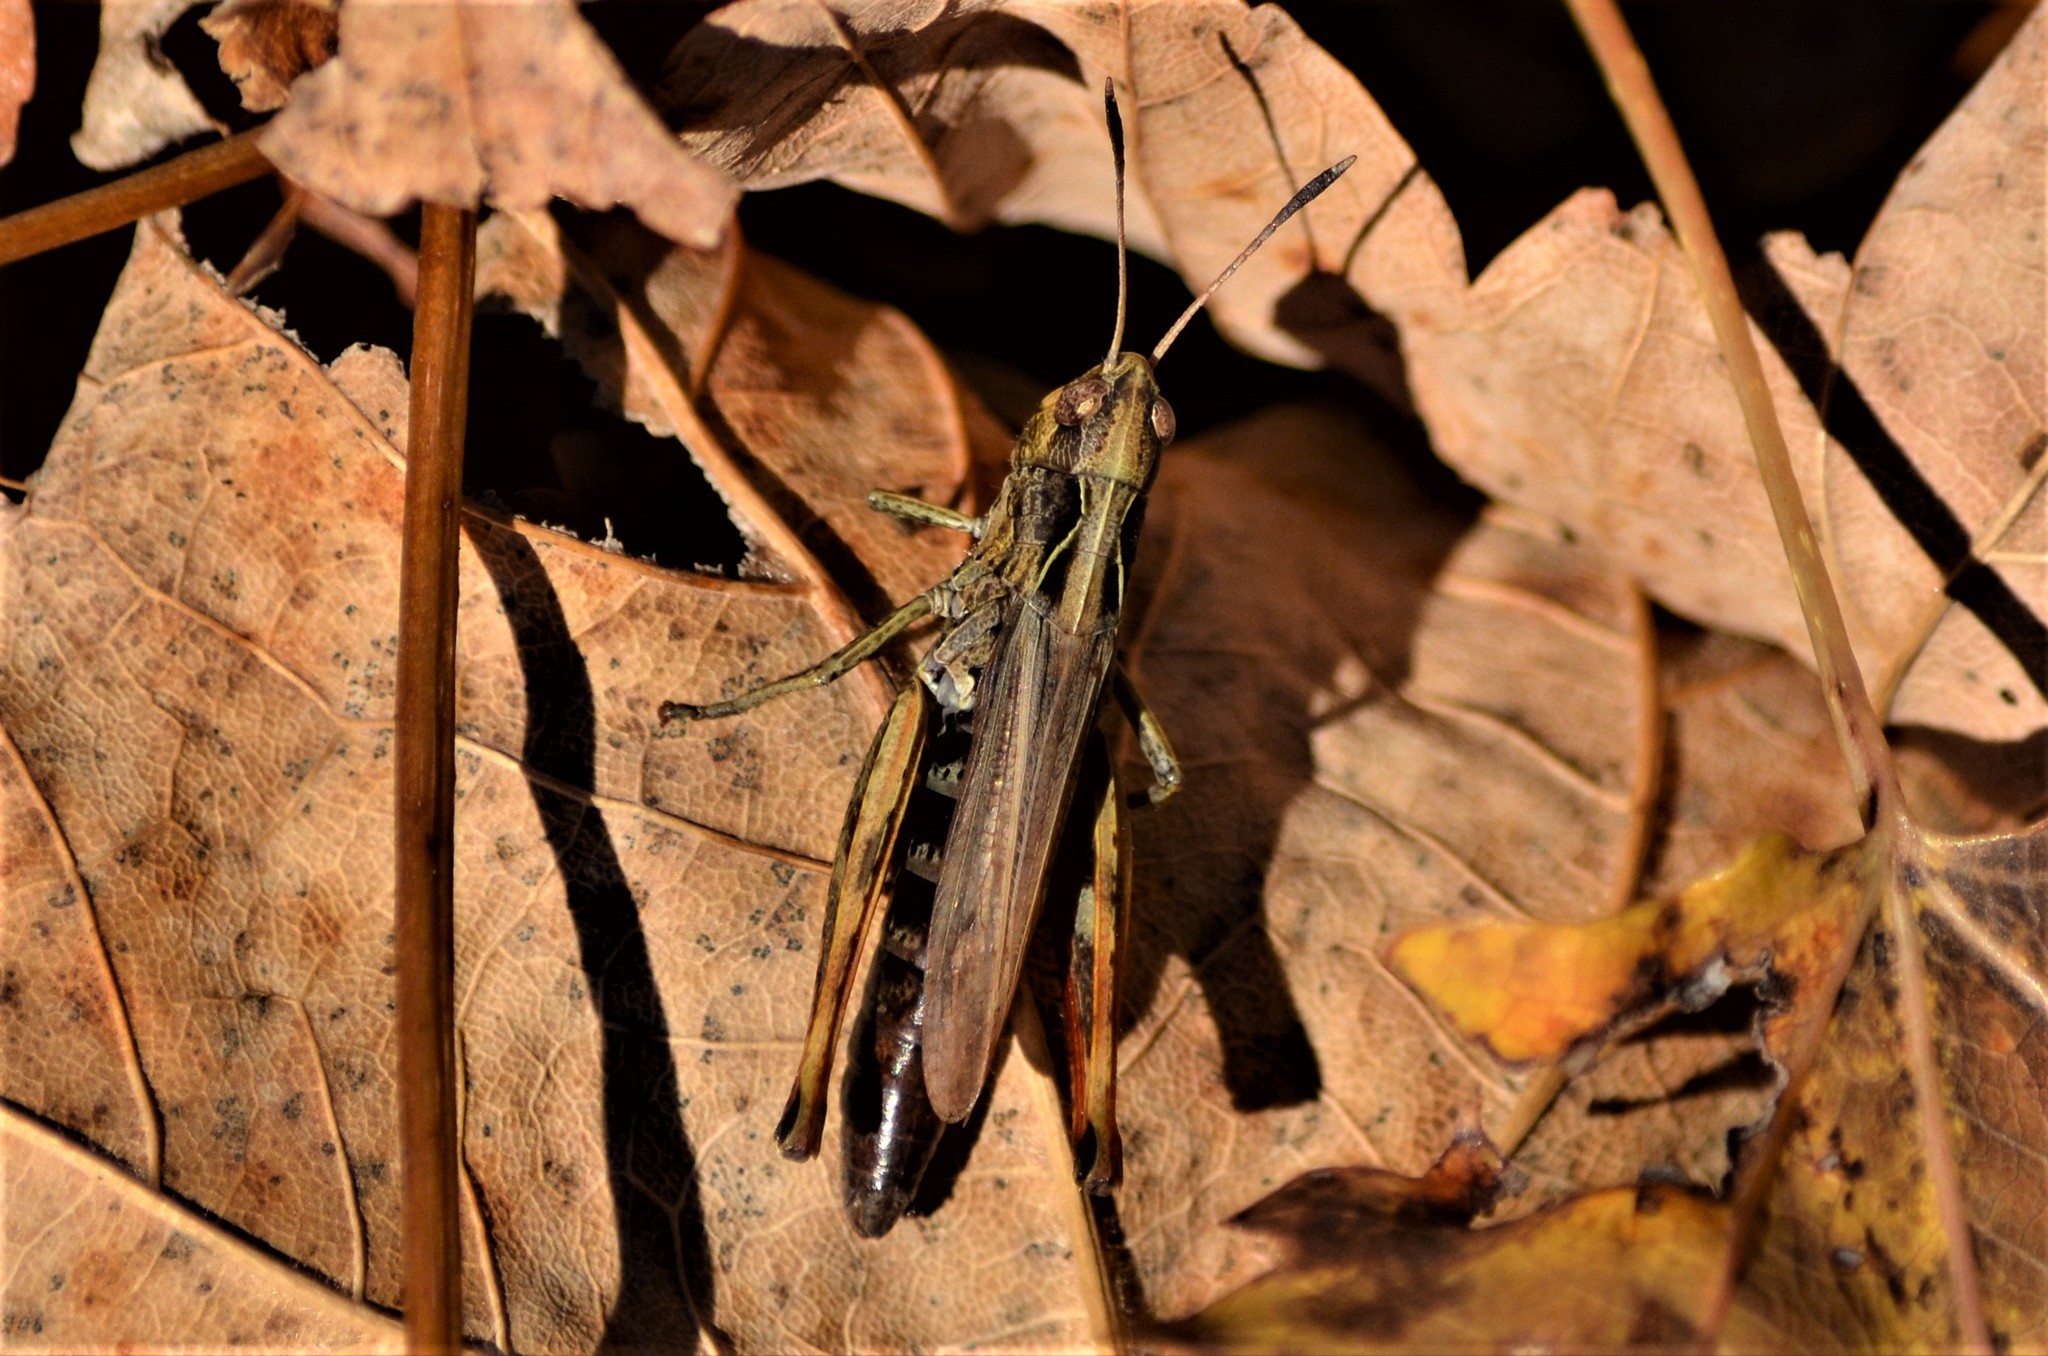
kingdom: Animalia
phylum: Arthropoda
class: Insecta
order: Orthoptera
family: Acrididae
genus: Gomphocerippus
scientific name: Gomphocerippus rufus
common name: Rufous grasshopper
